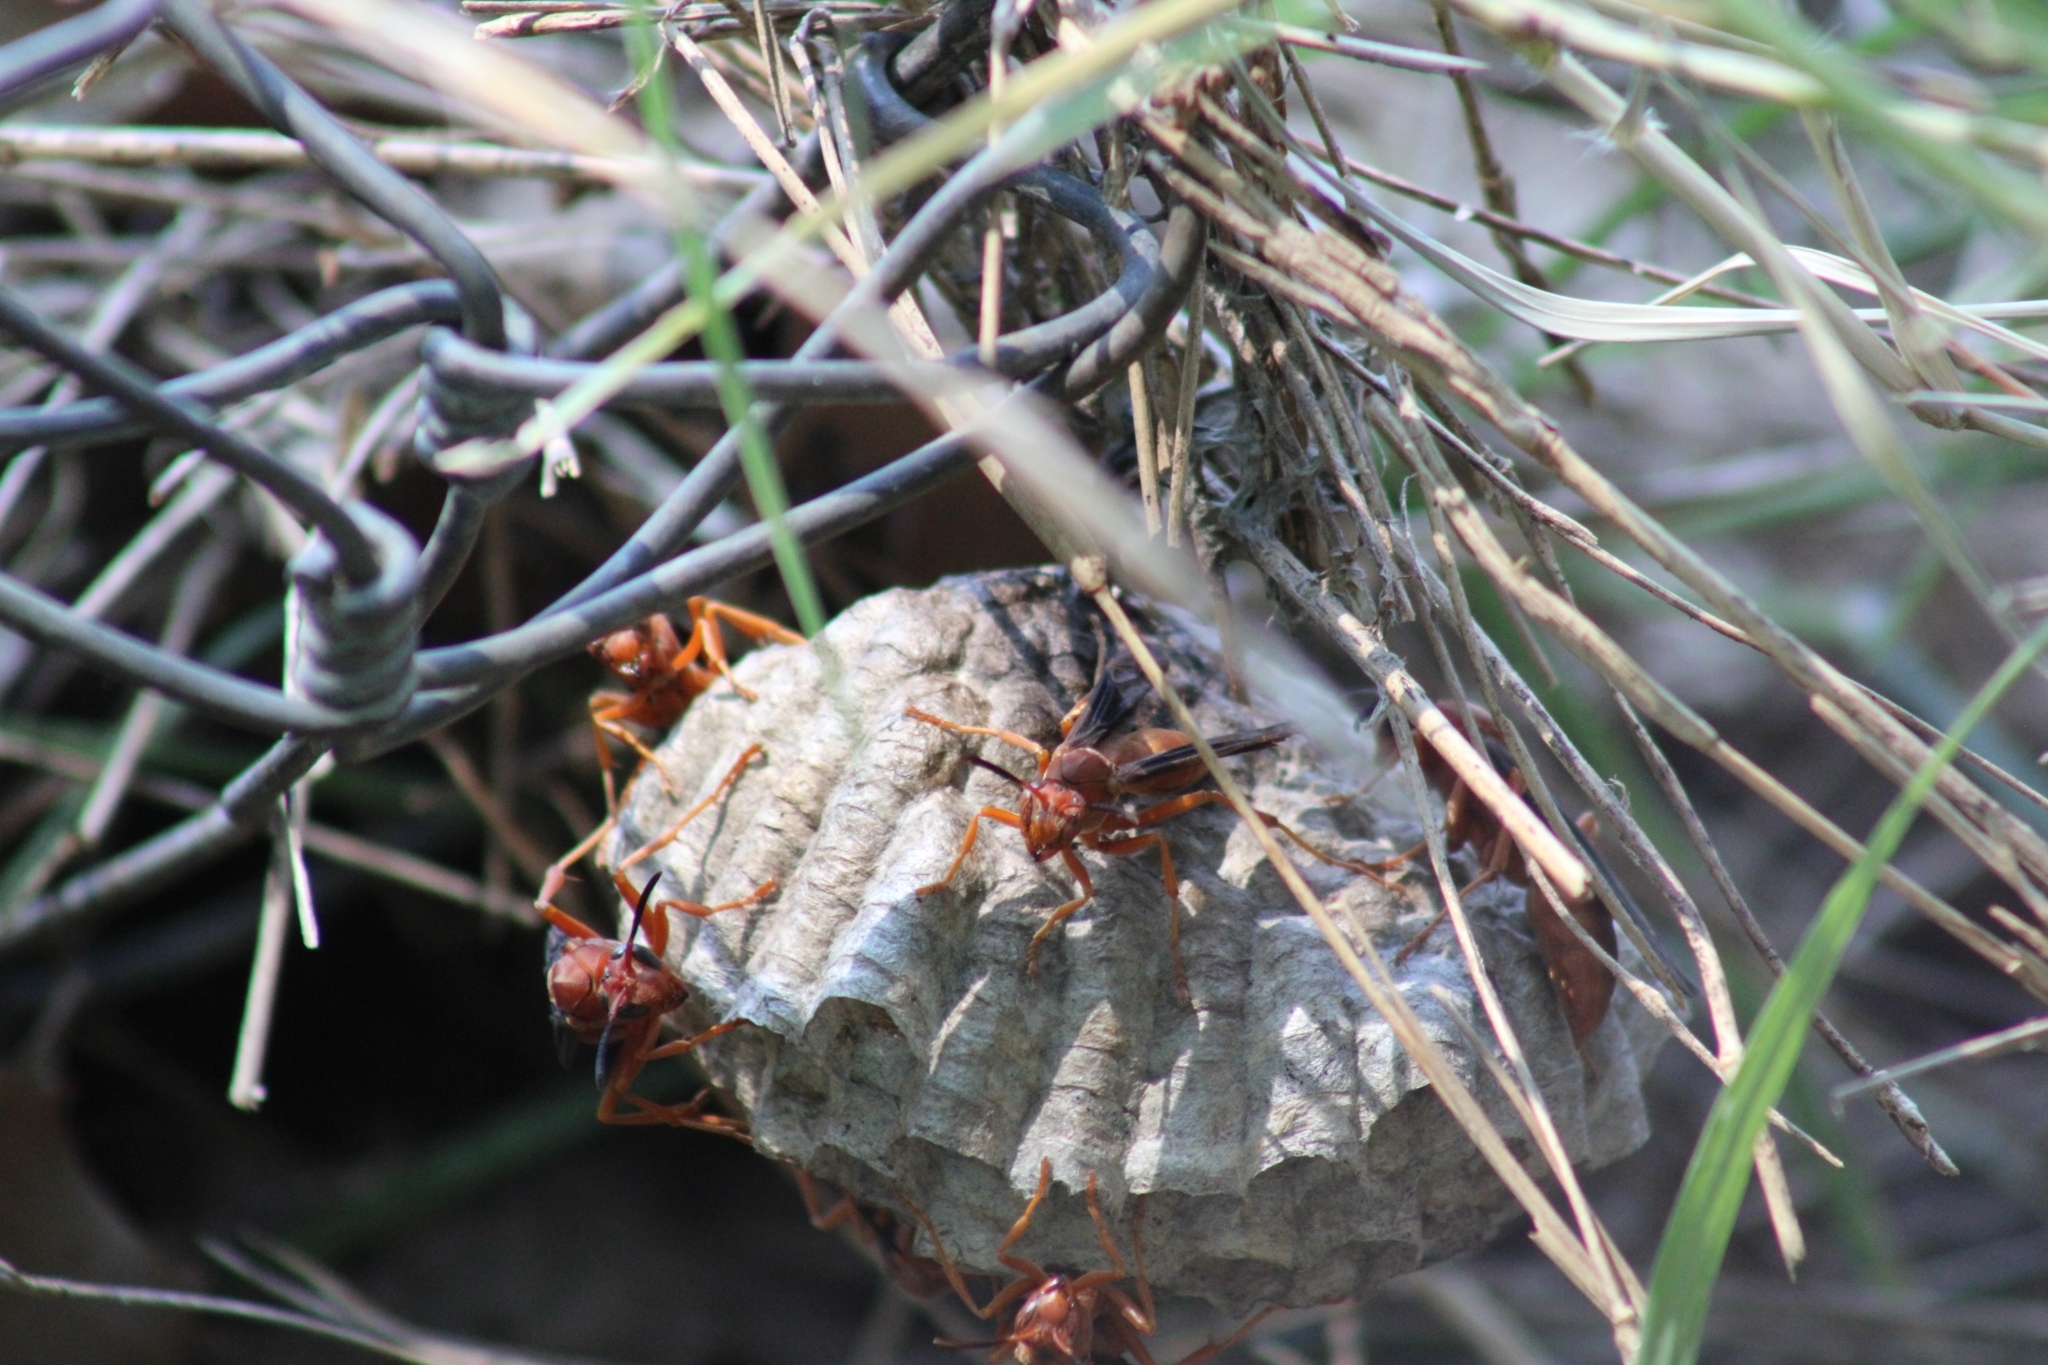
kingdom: Animalia
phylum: Arthropoda
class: Insecta
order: Hymenoptera
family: Vespidae
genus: Fuscopolistes
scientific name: Fuscopolistes
